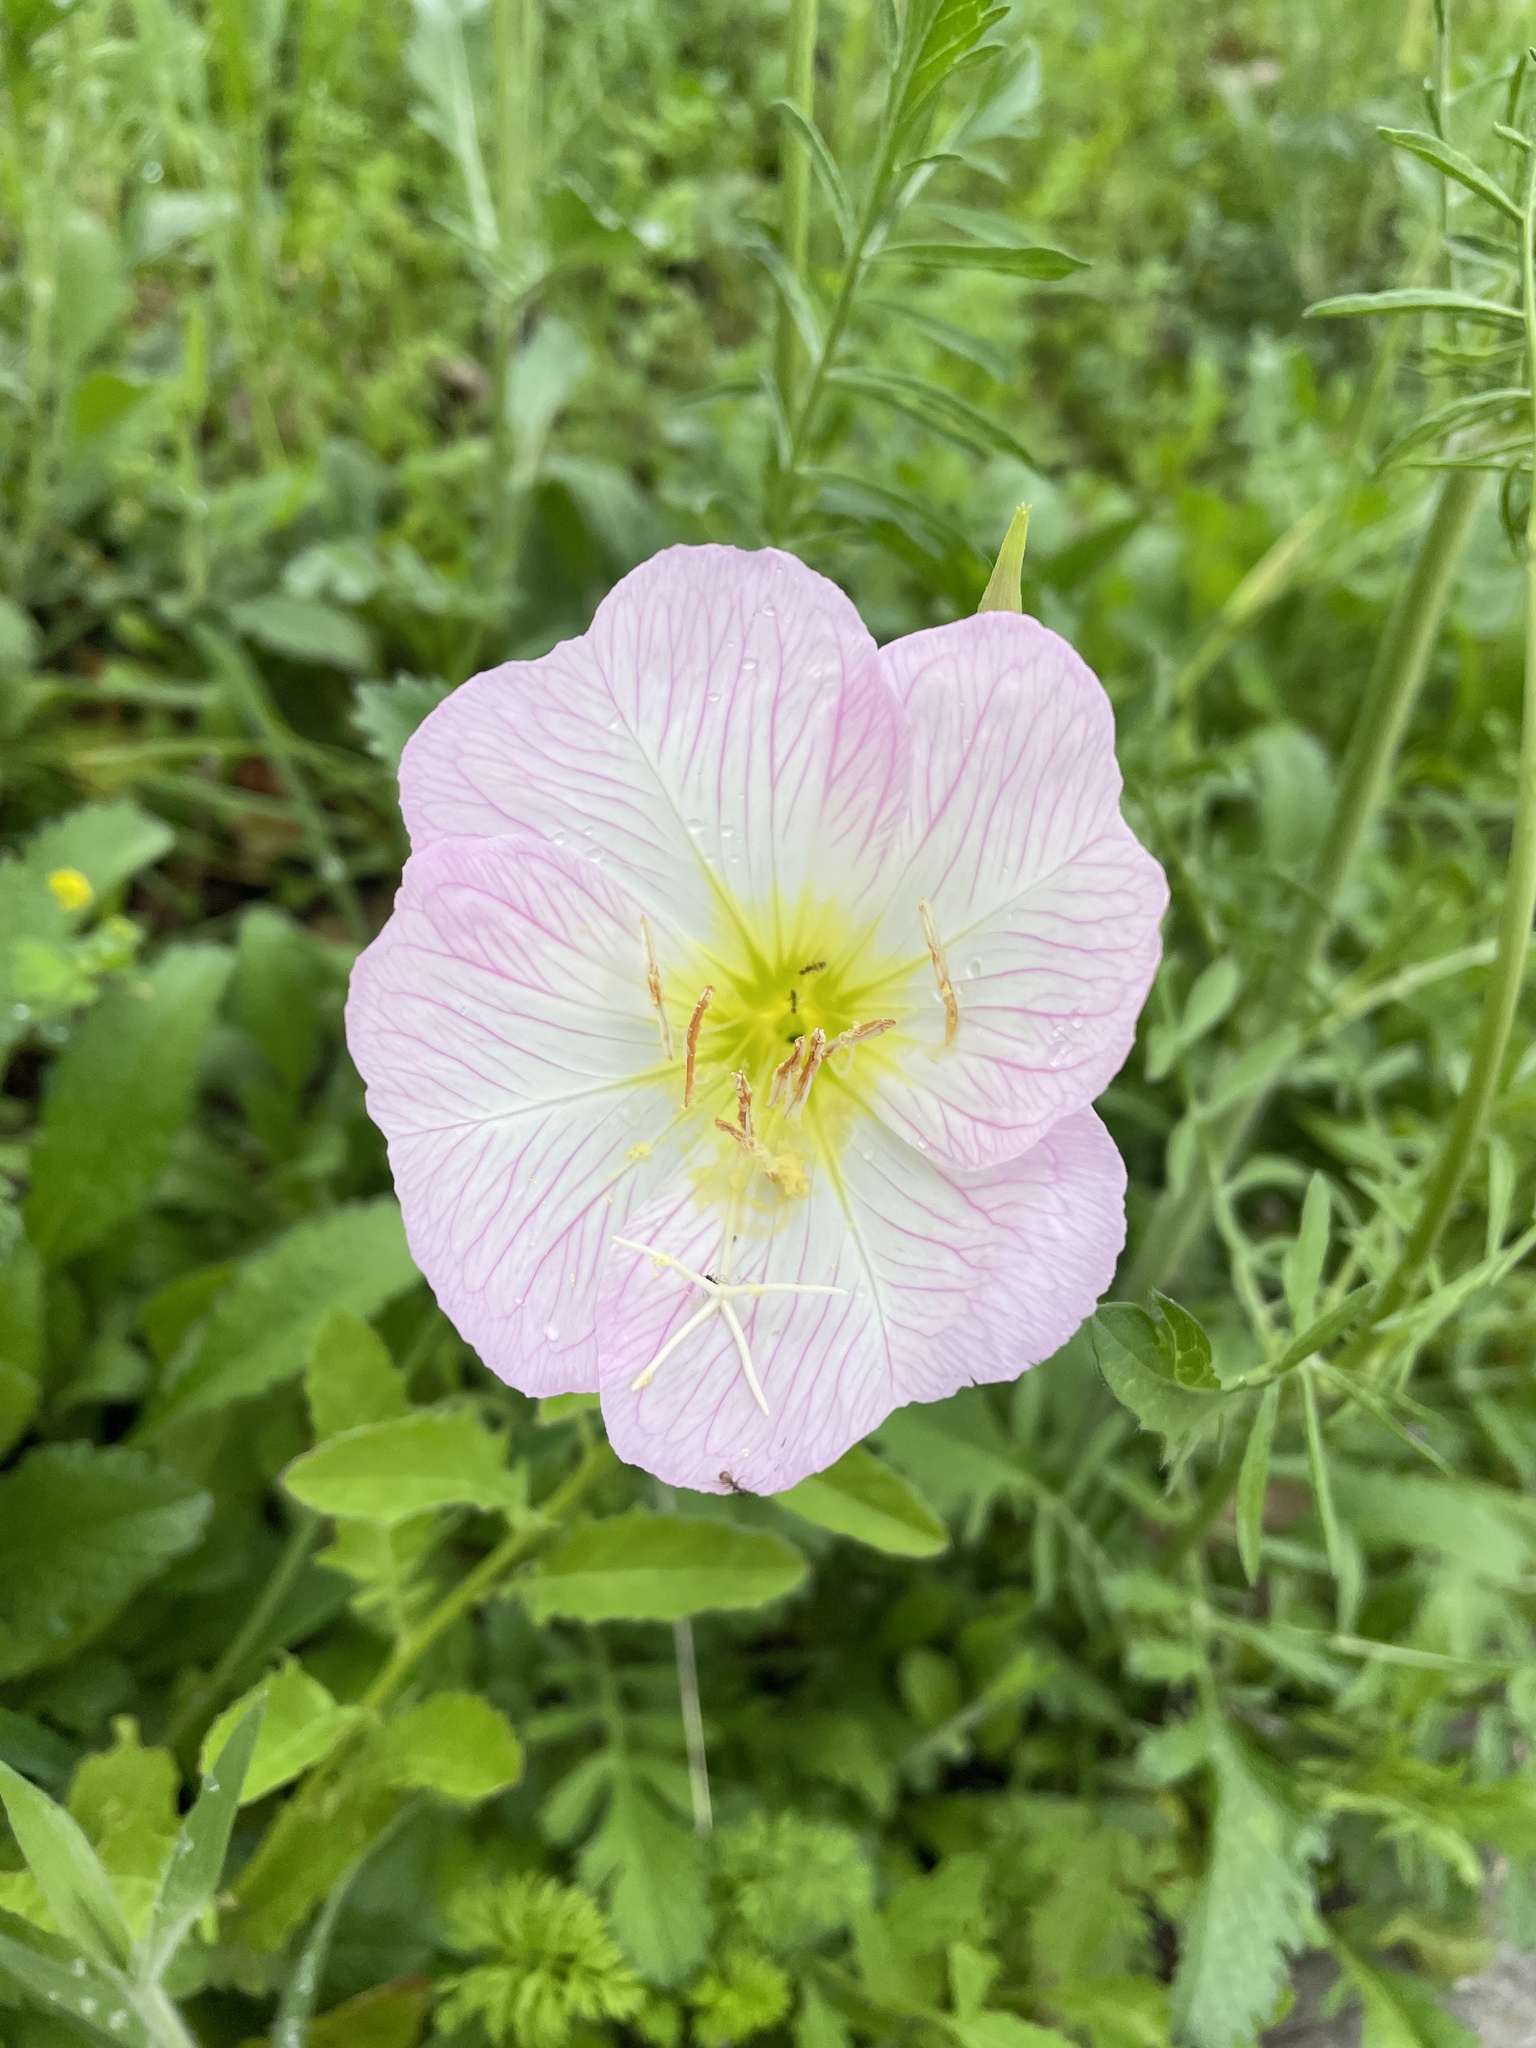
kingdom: Plantae
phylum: Tracheophyta
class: Magnoliopsida
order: Myrtales
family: Onagraceae
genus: Oenothera
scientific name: Oenothera speciosa
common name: White evening-primrose
